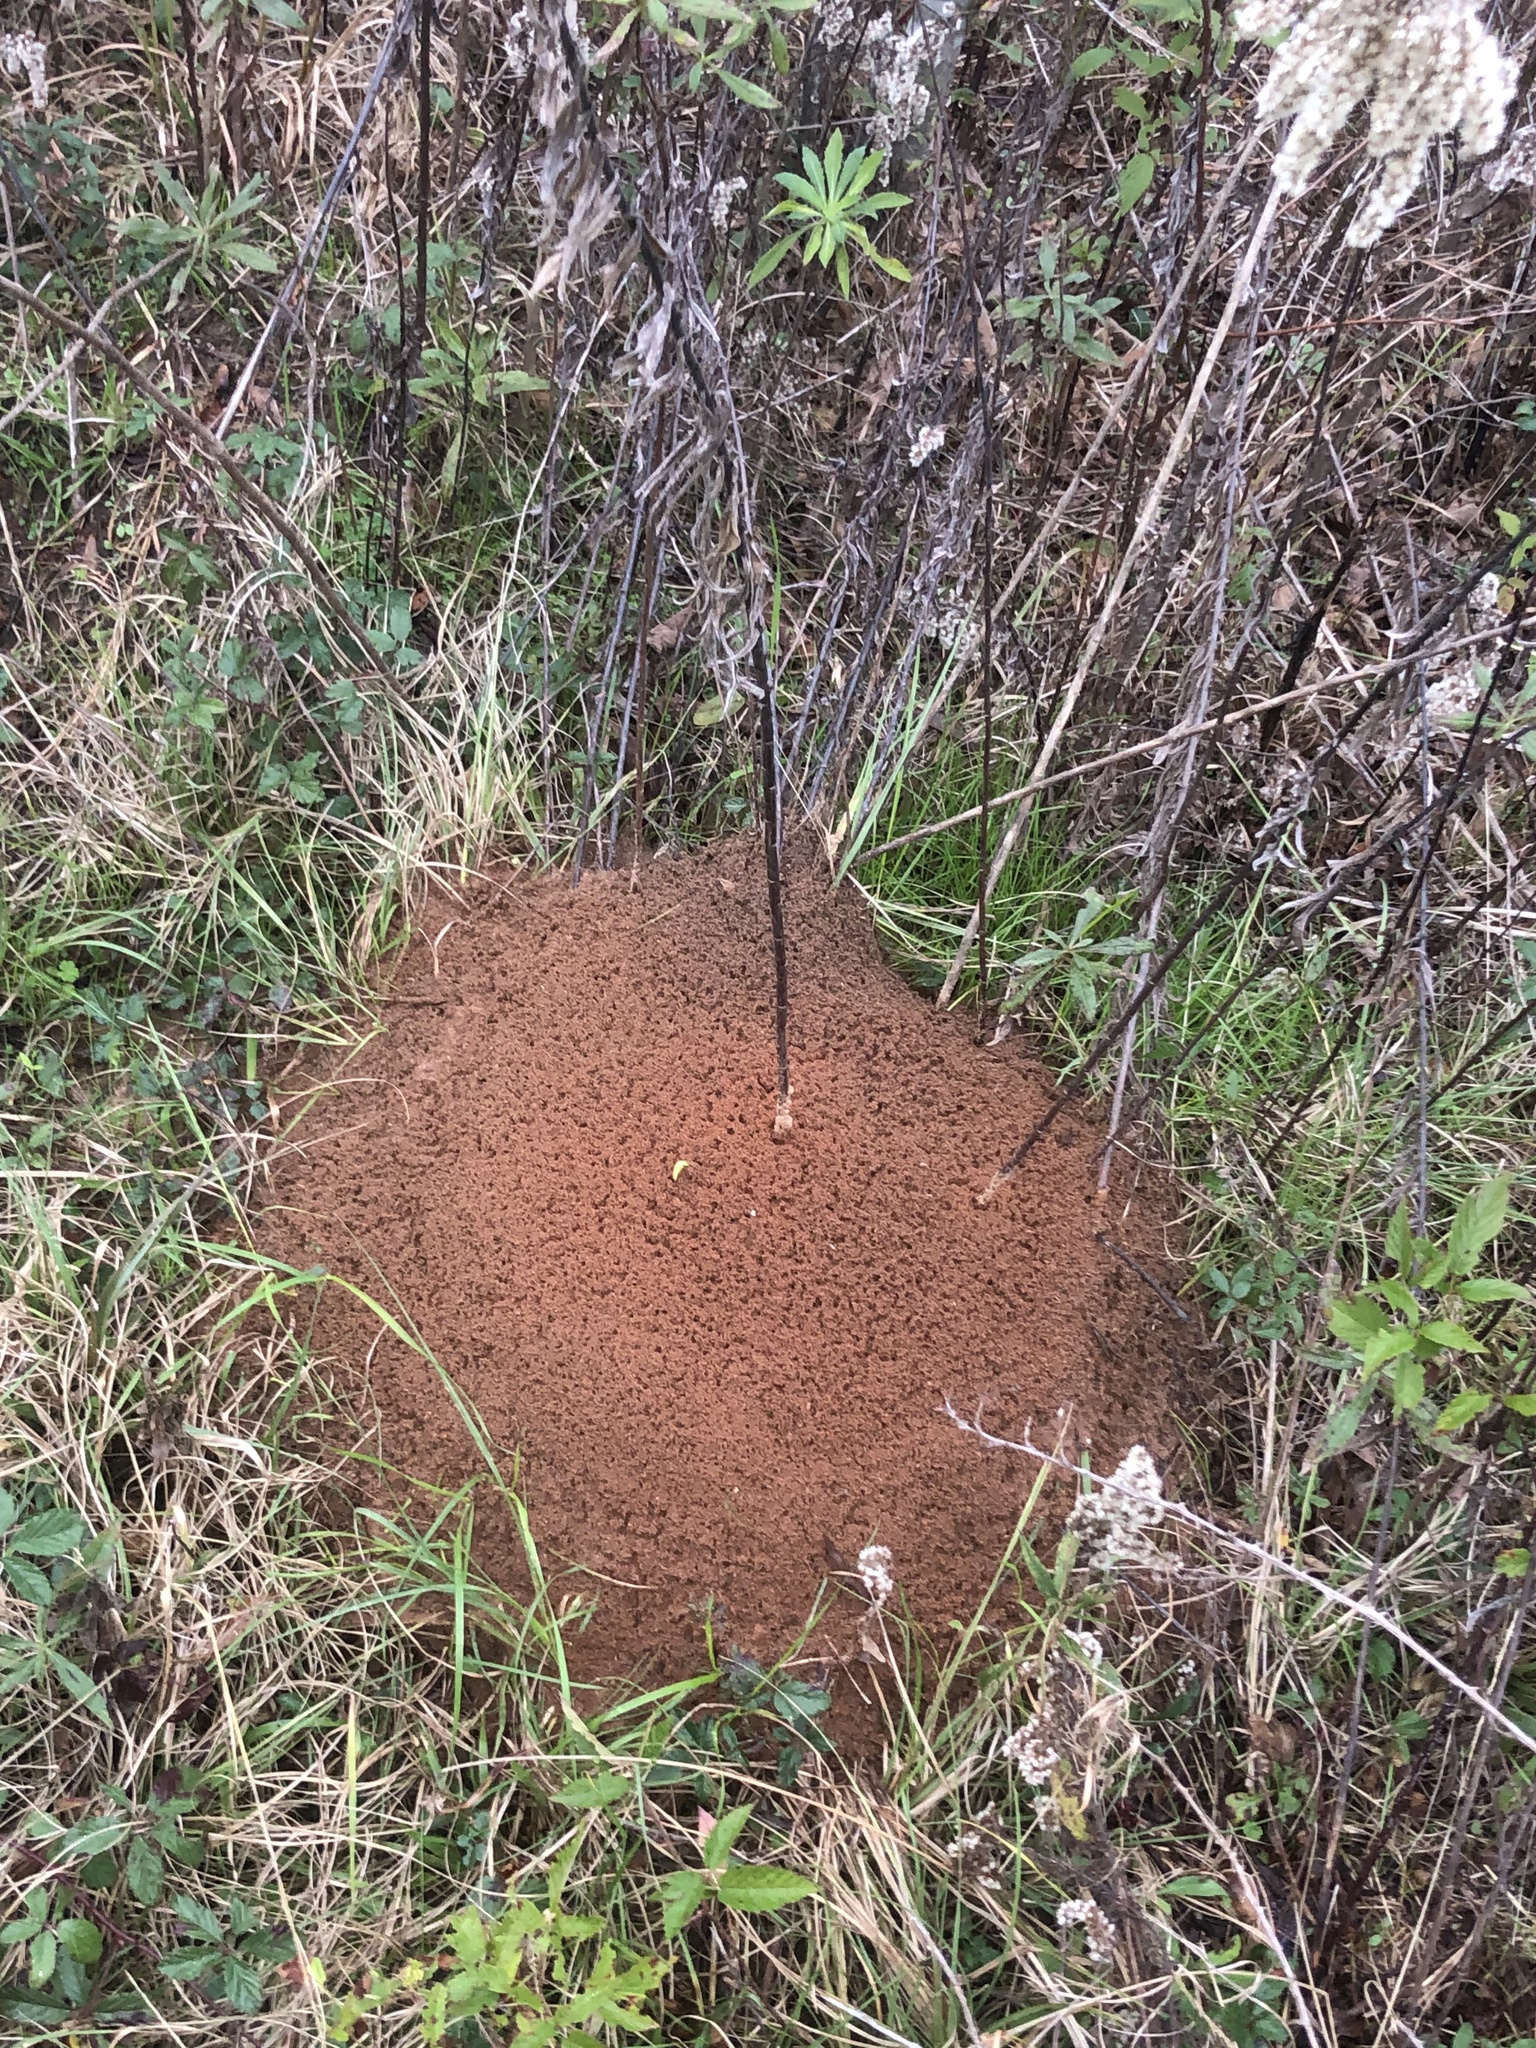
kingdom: Animalia
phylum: Arthropoda
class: Insecta
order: Hymenoptera
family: Formicidae
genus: Solenopsis
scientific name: Solenopsis invicta
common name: Red imported fire ant
